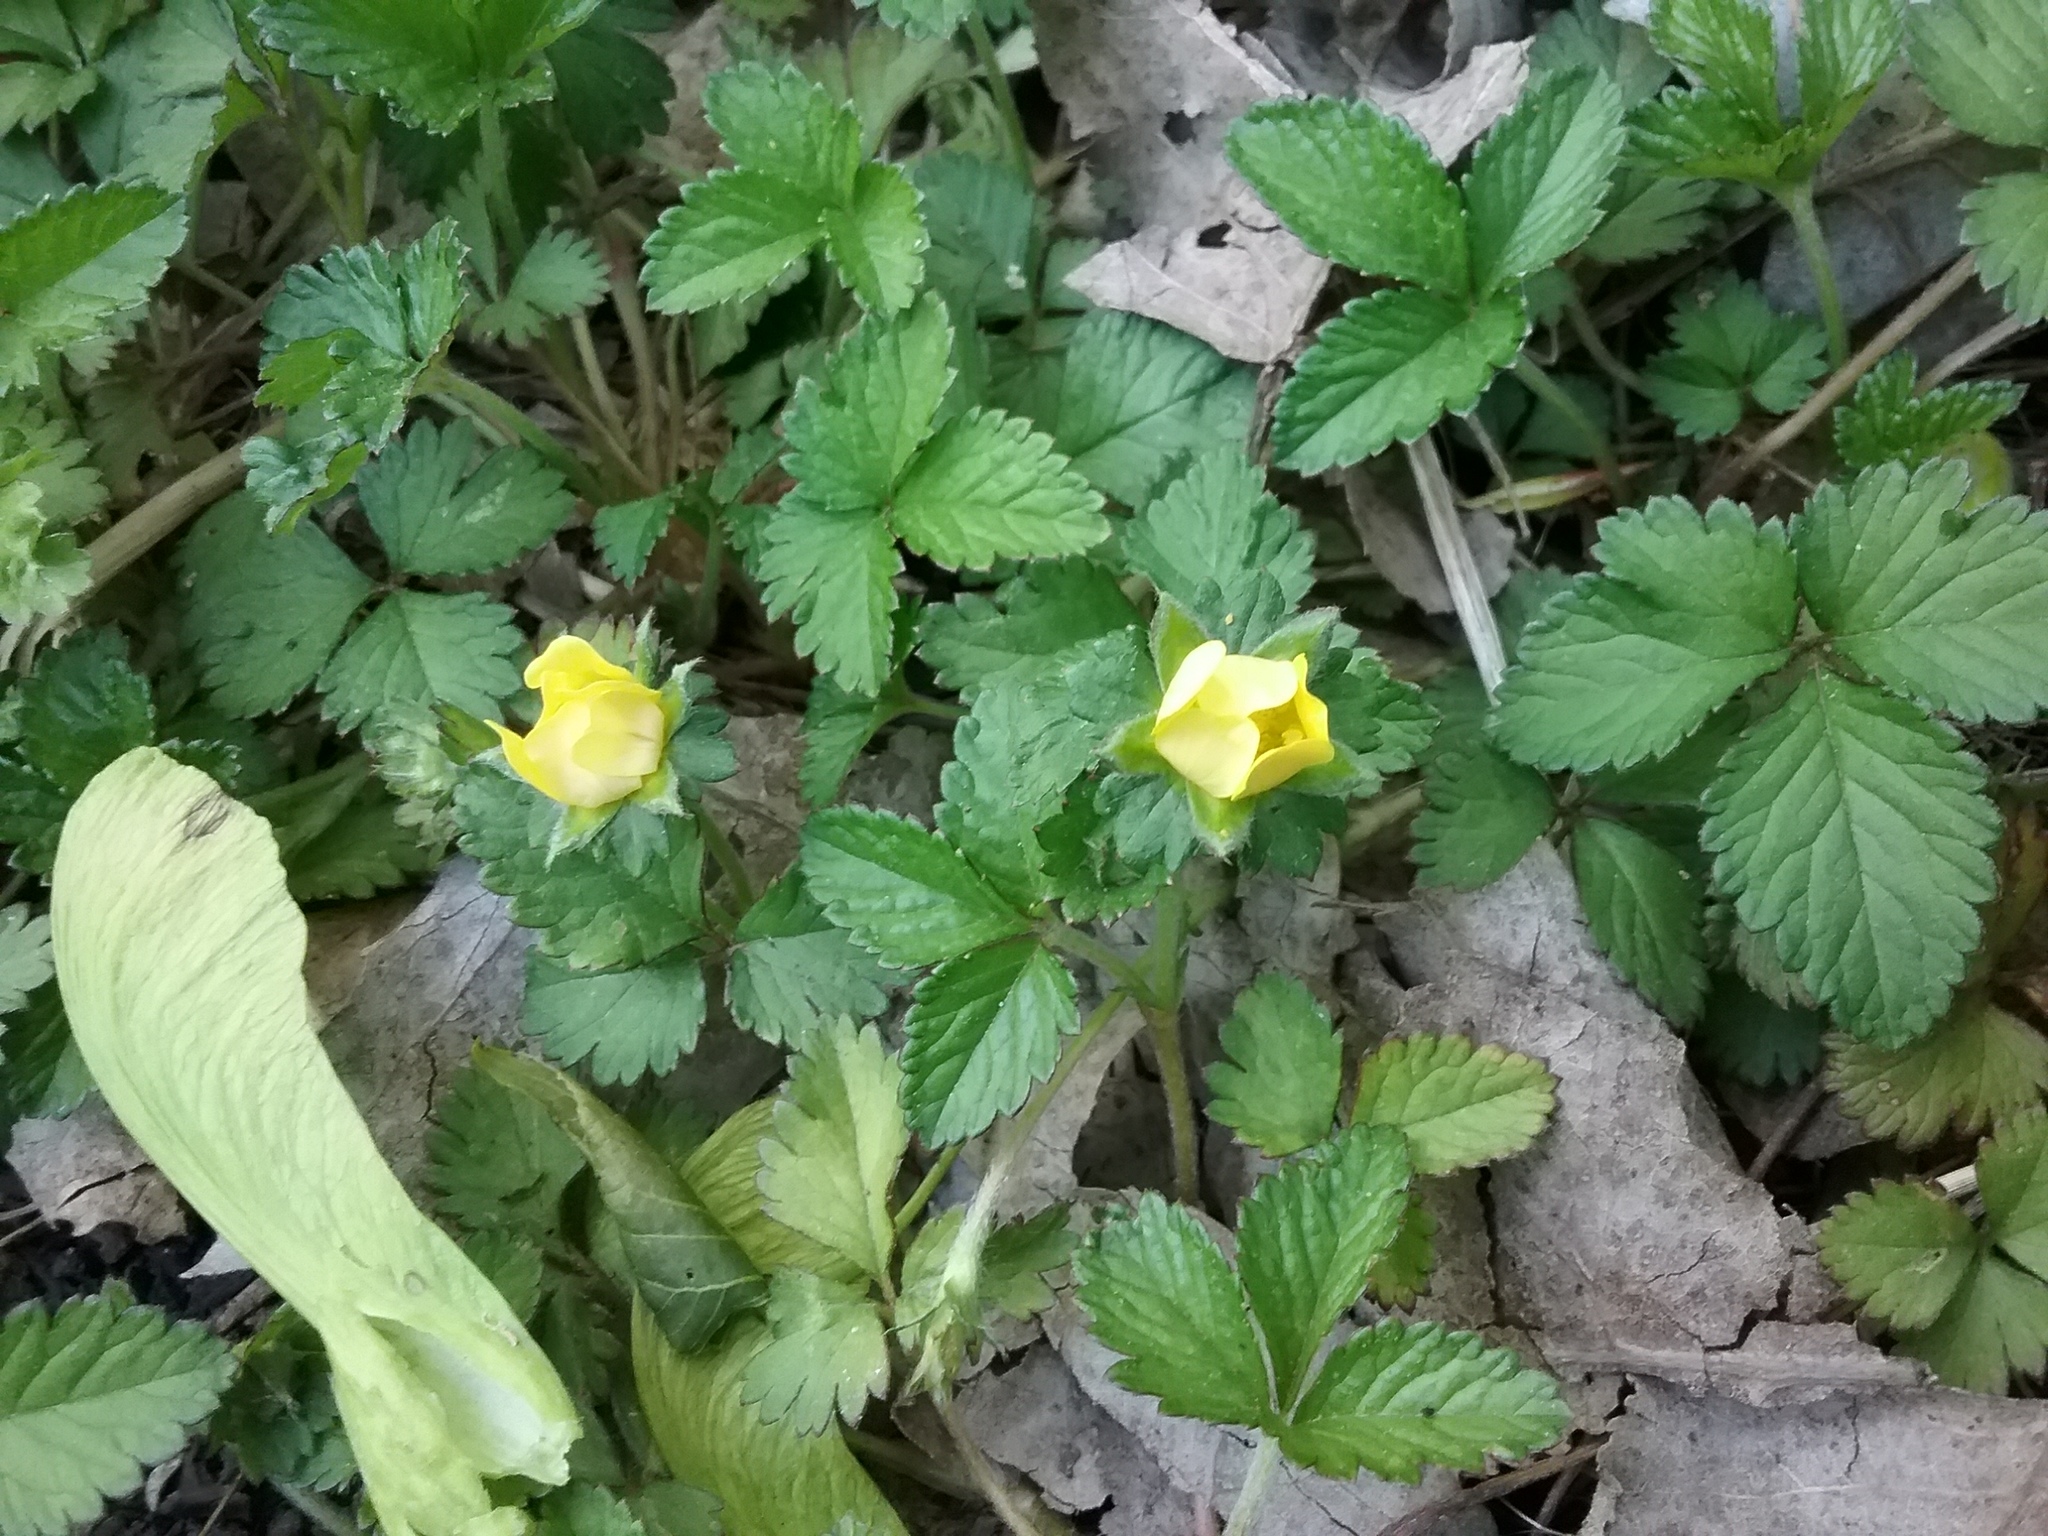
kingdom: Plantae
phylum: Tracheophyta
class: Magnoliopsida
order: Rosales
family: Rosaceae
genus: Potentilla
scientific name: Potentilla indica
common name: Yellow-flowered strawberry
